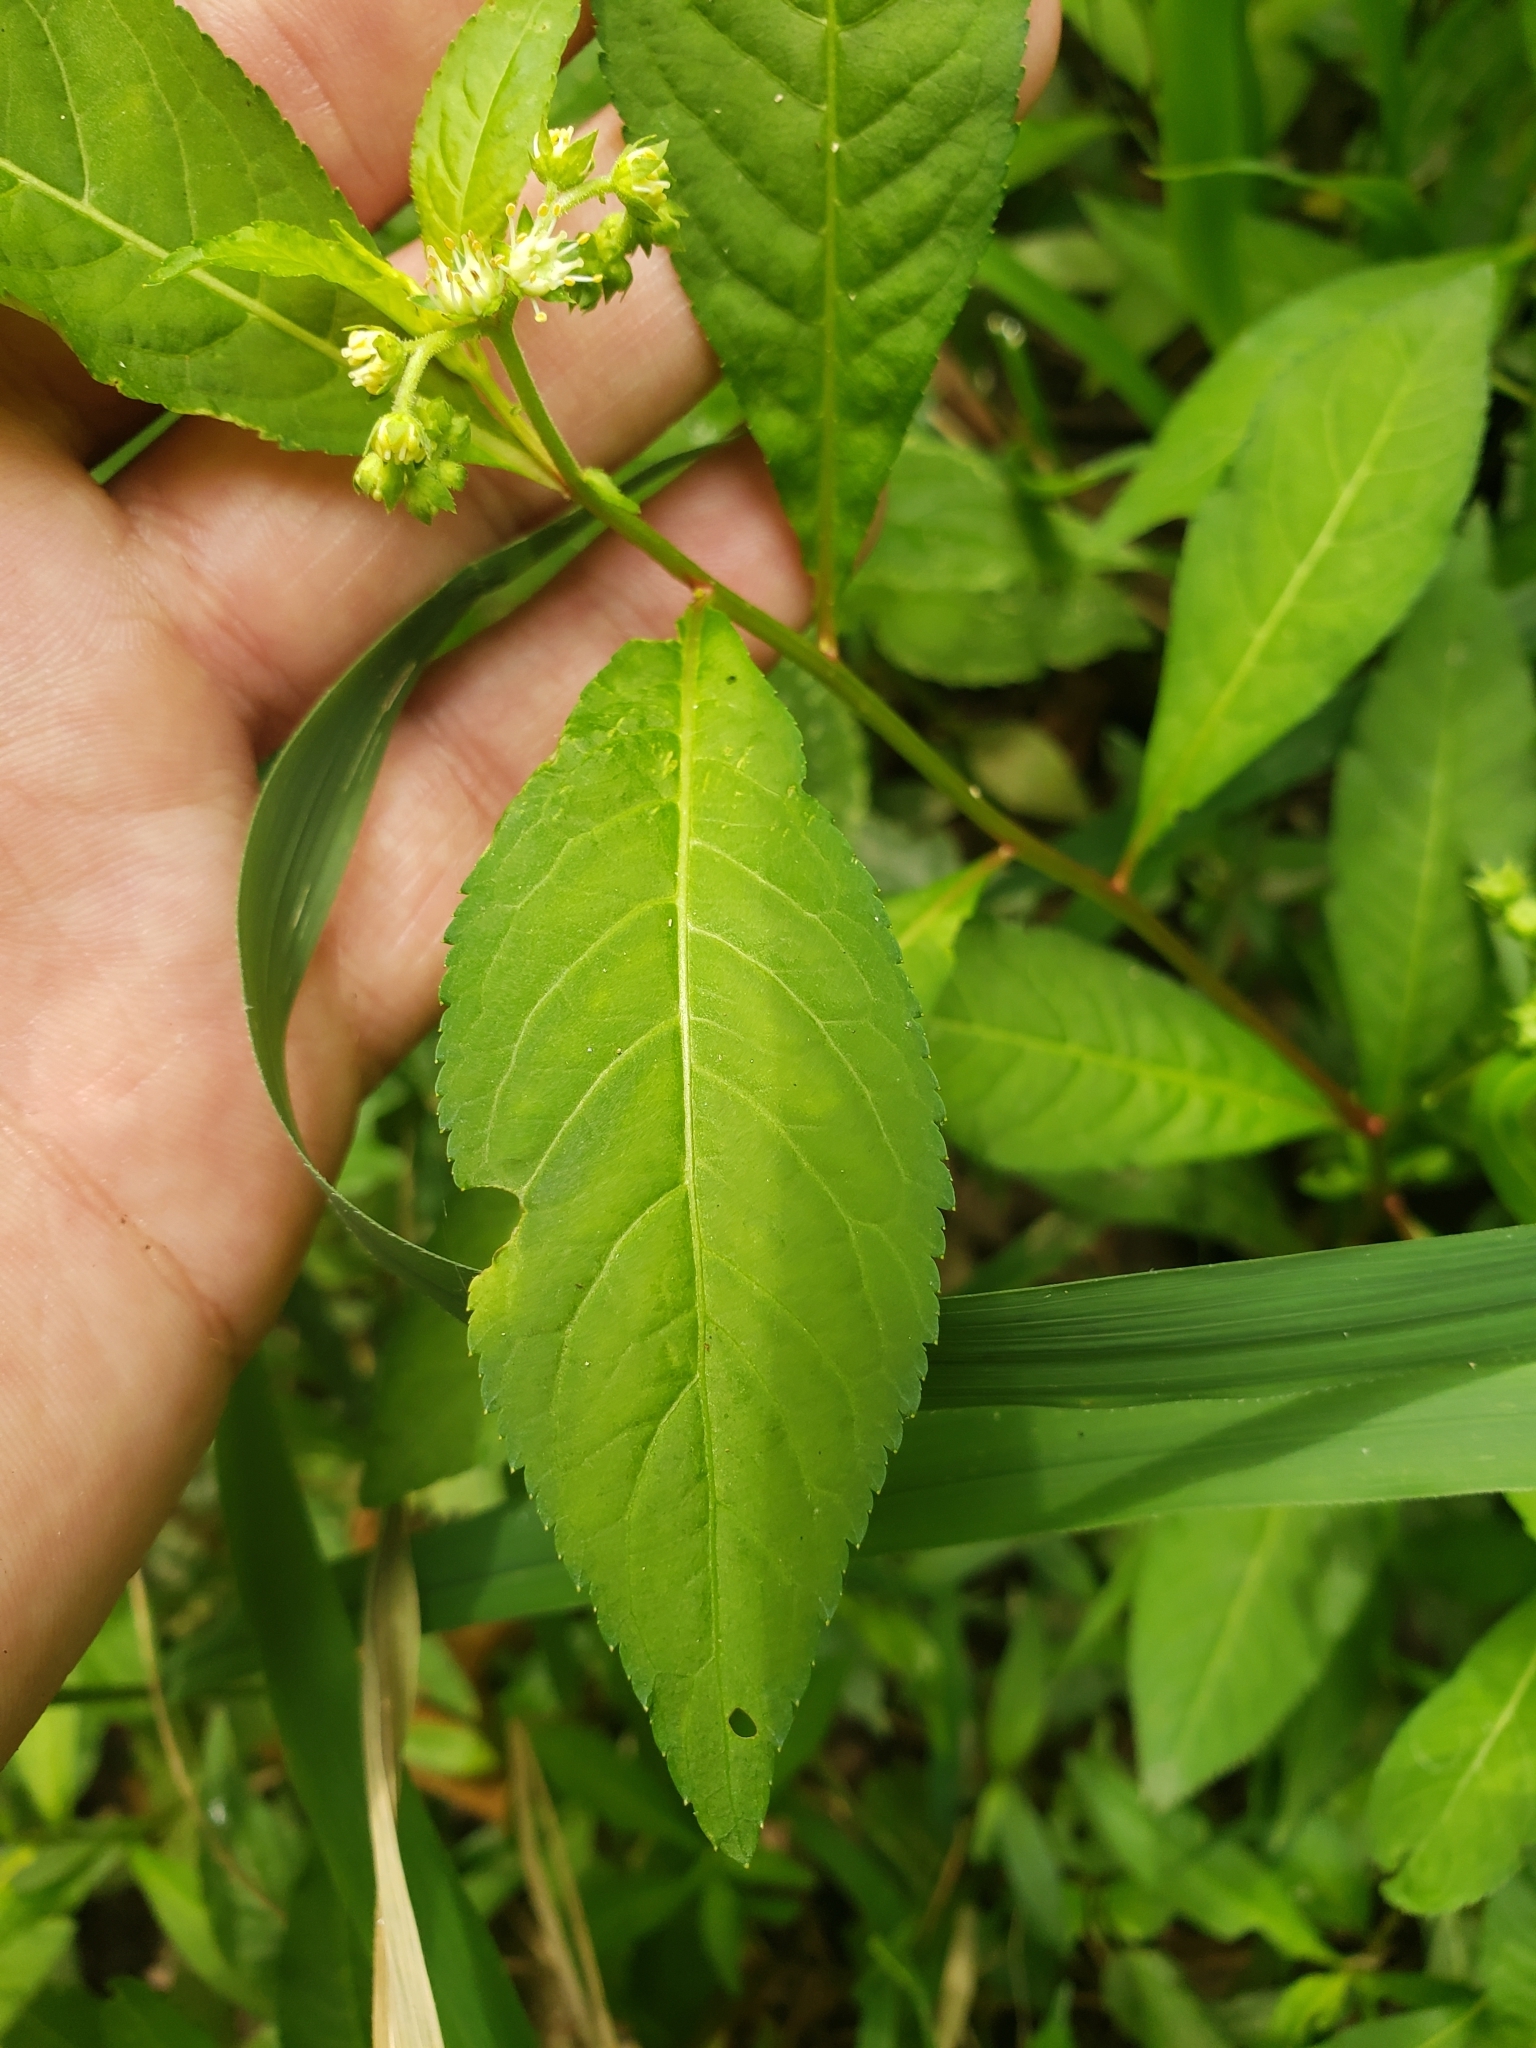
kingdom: Plantae
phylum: Tracheophyta
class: Magnoliopsida
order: Saxifragales
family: Penthoraceae
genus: Penthorum
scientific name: Penthorum sedoides
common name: Ditch stonecrop
